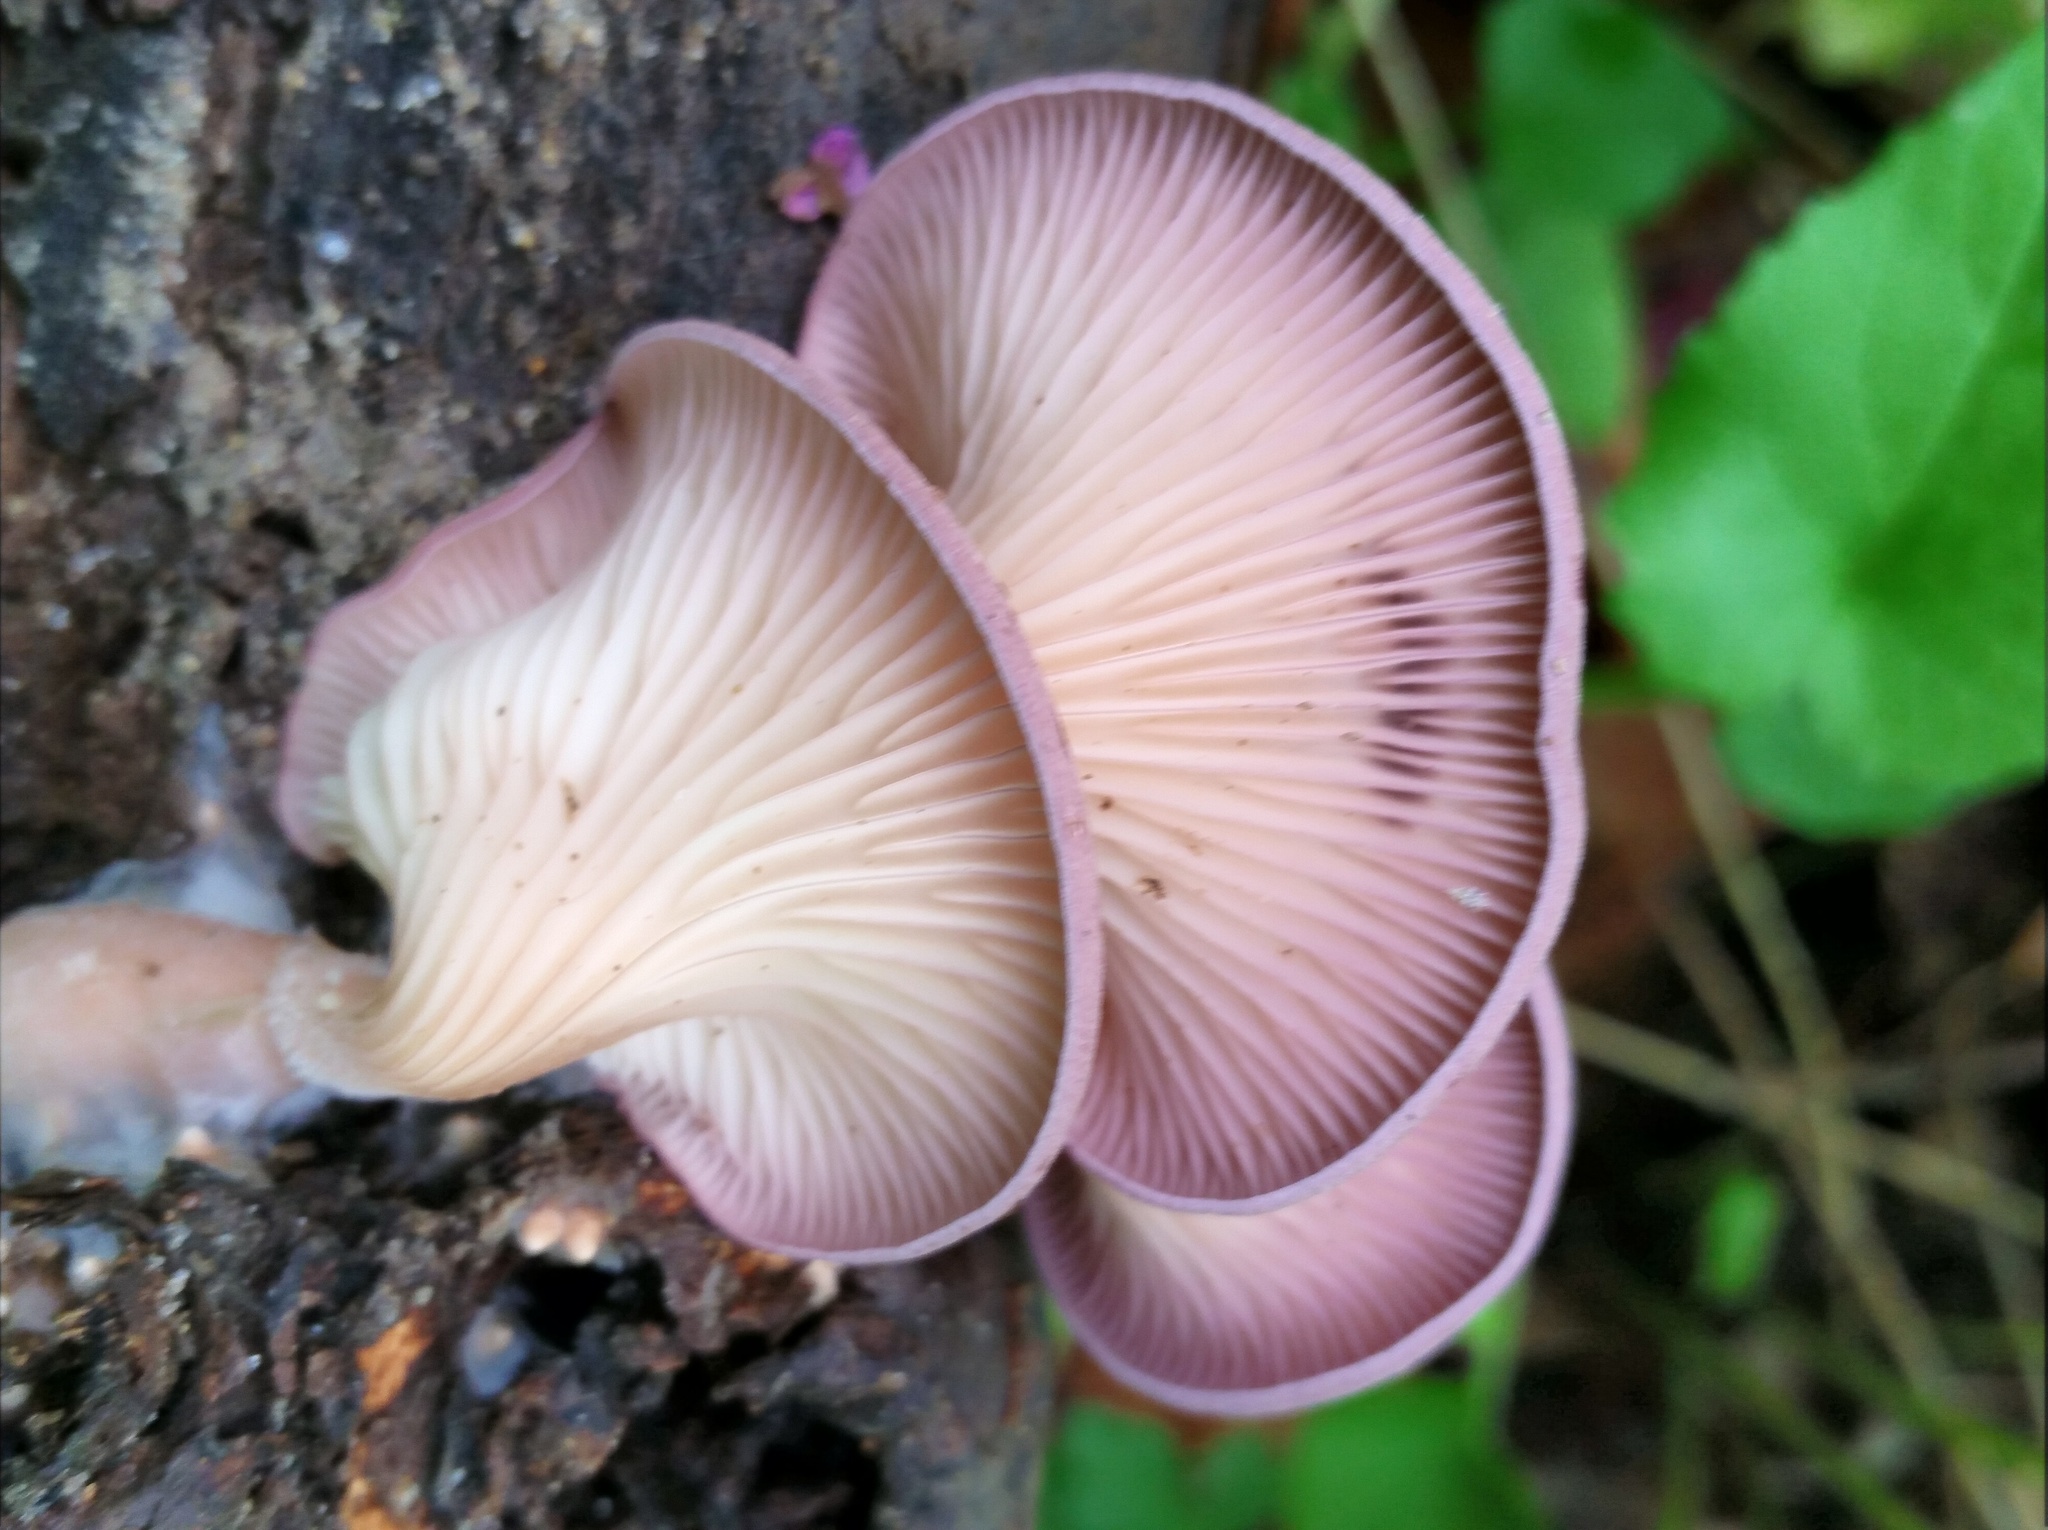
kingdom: Fungi
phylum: Basidiomycota
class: Agaricomycetes
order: Polyporales
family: Panaceae
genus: Panus
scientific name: Panus conchatus
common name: Lilac oysterling
